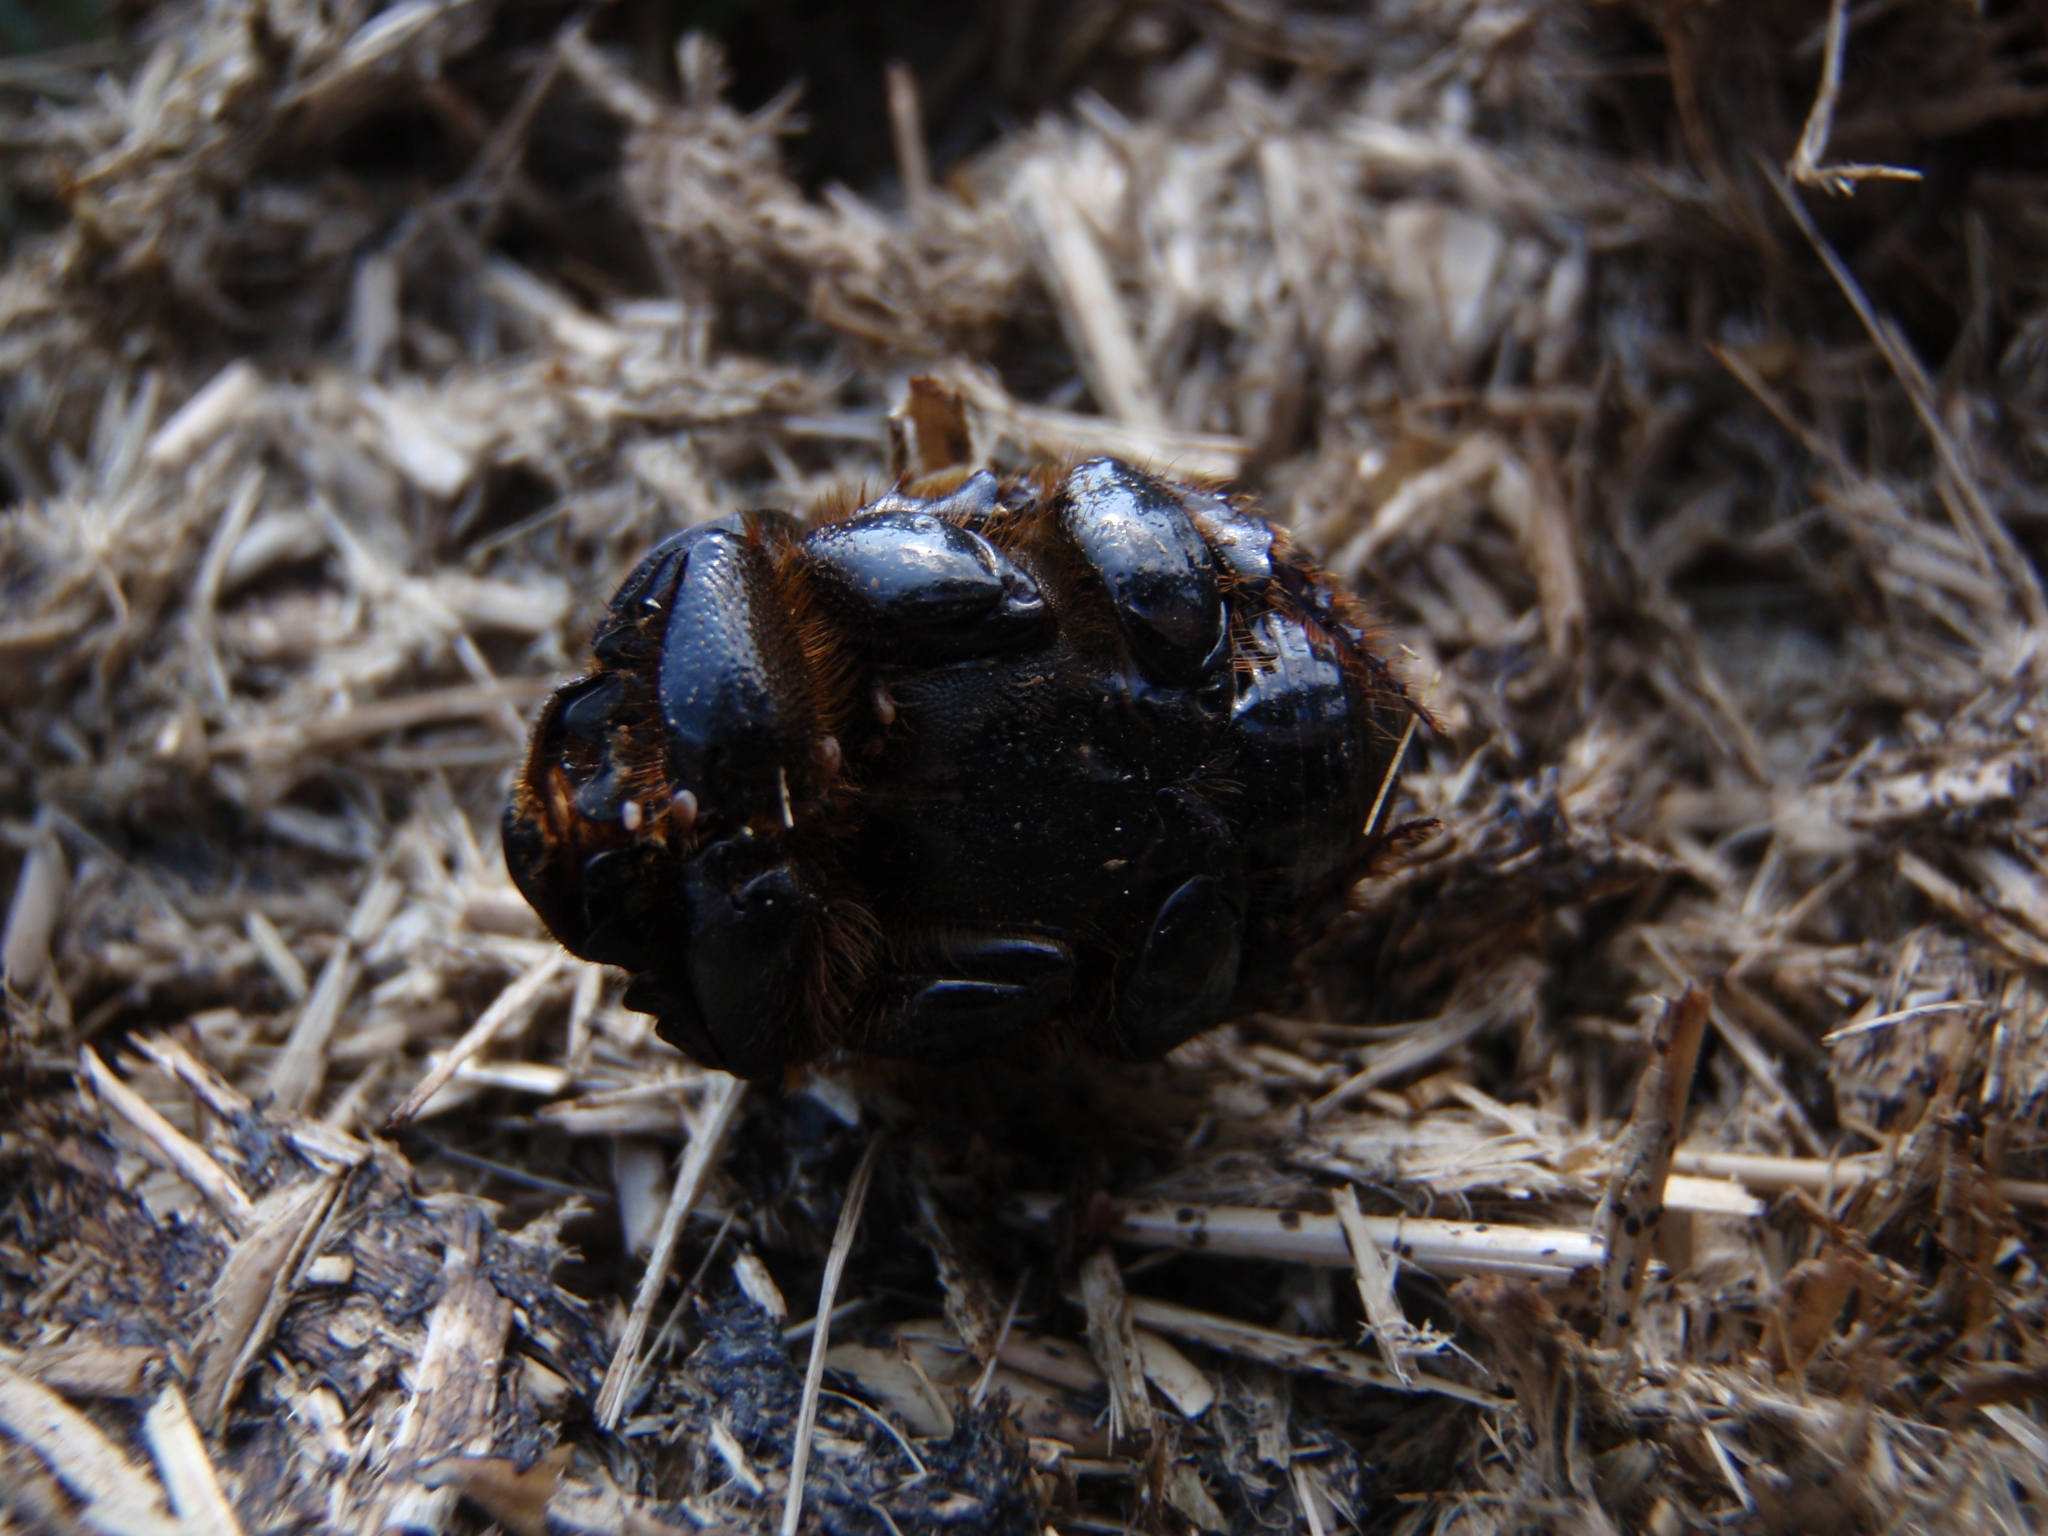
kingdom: Animalia
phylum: Arthropoda
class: Insecta
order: Coleoptera
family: Scarabaeidae
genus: Bubas
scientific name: Bubas bubalus
